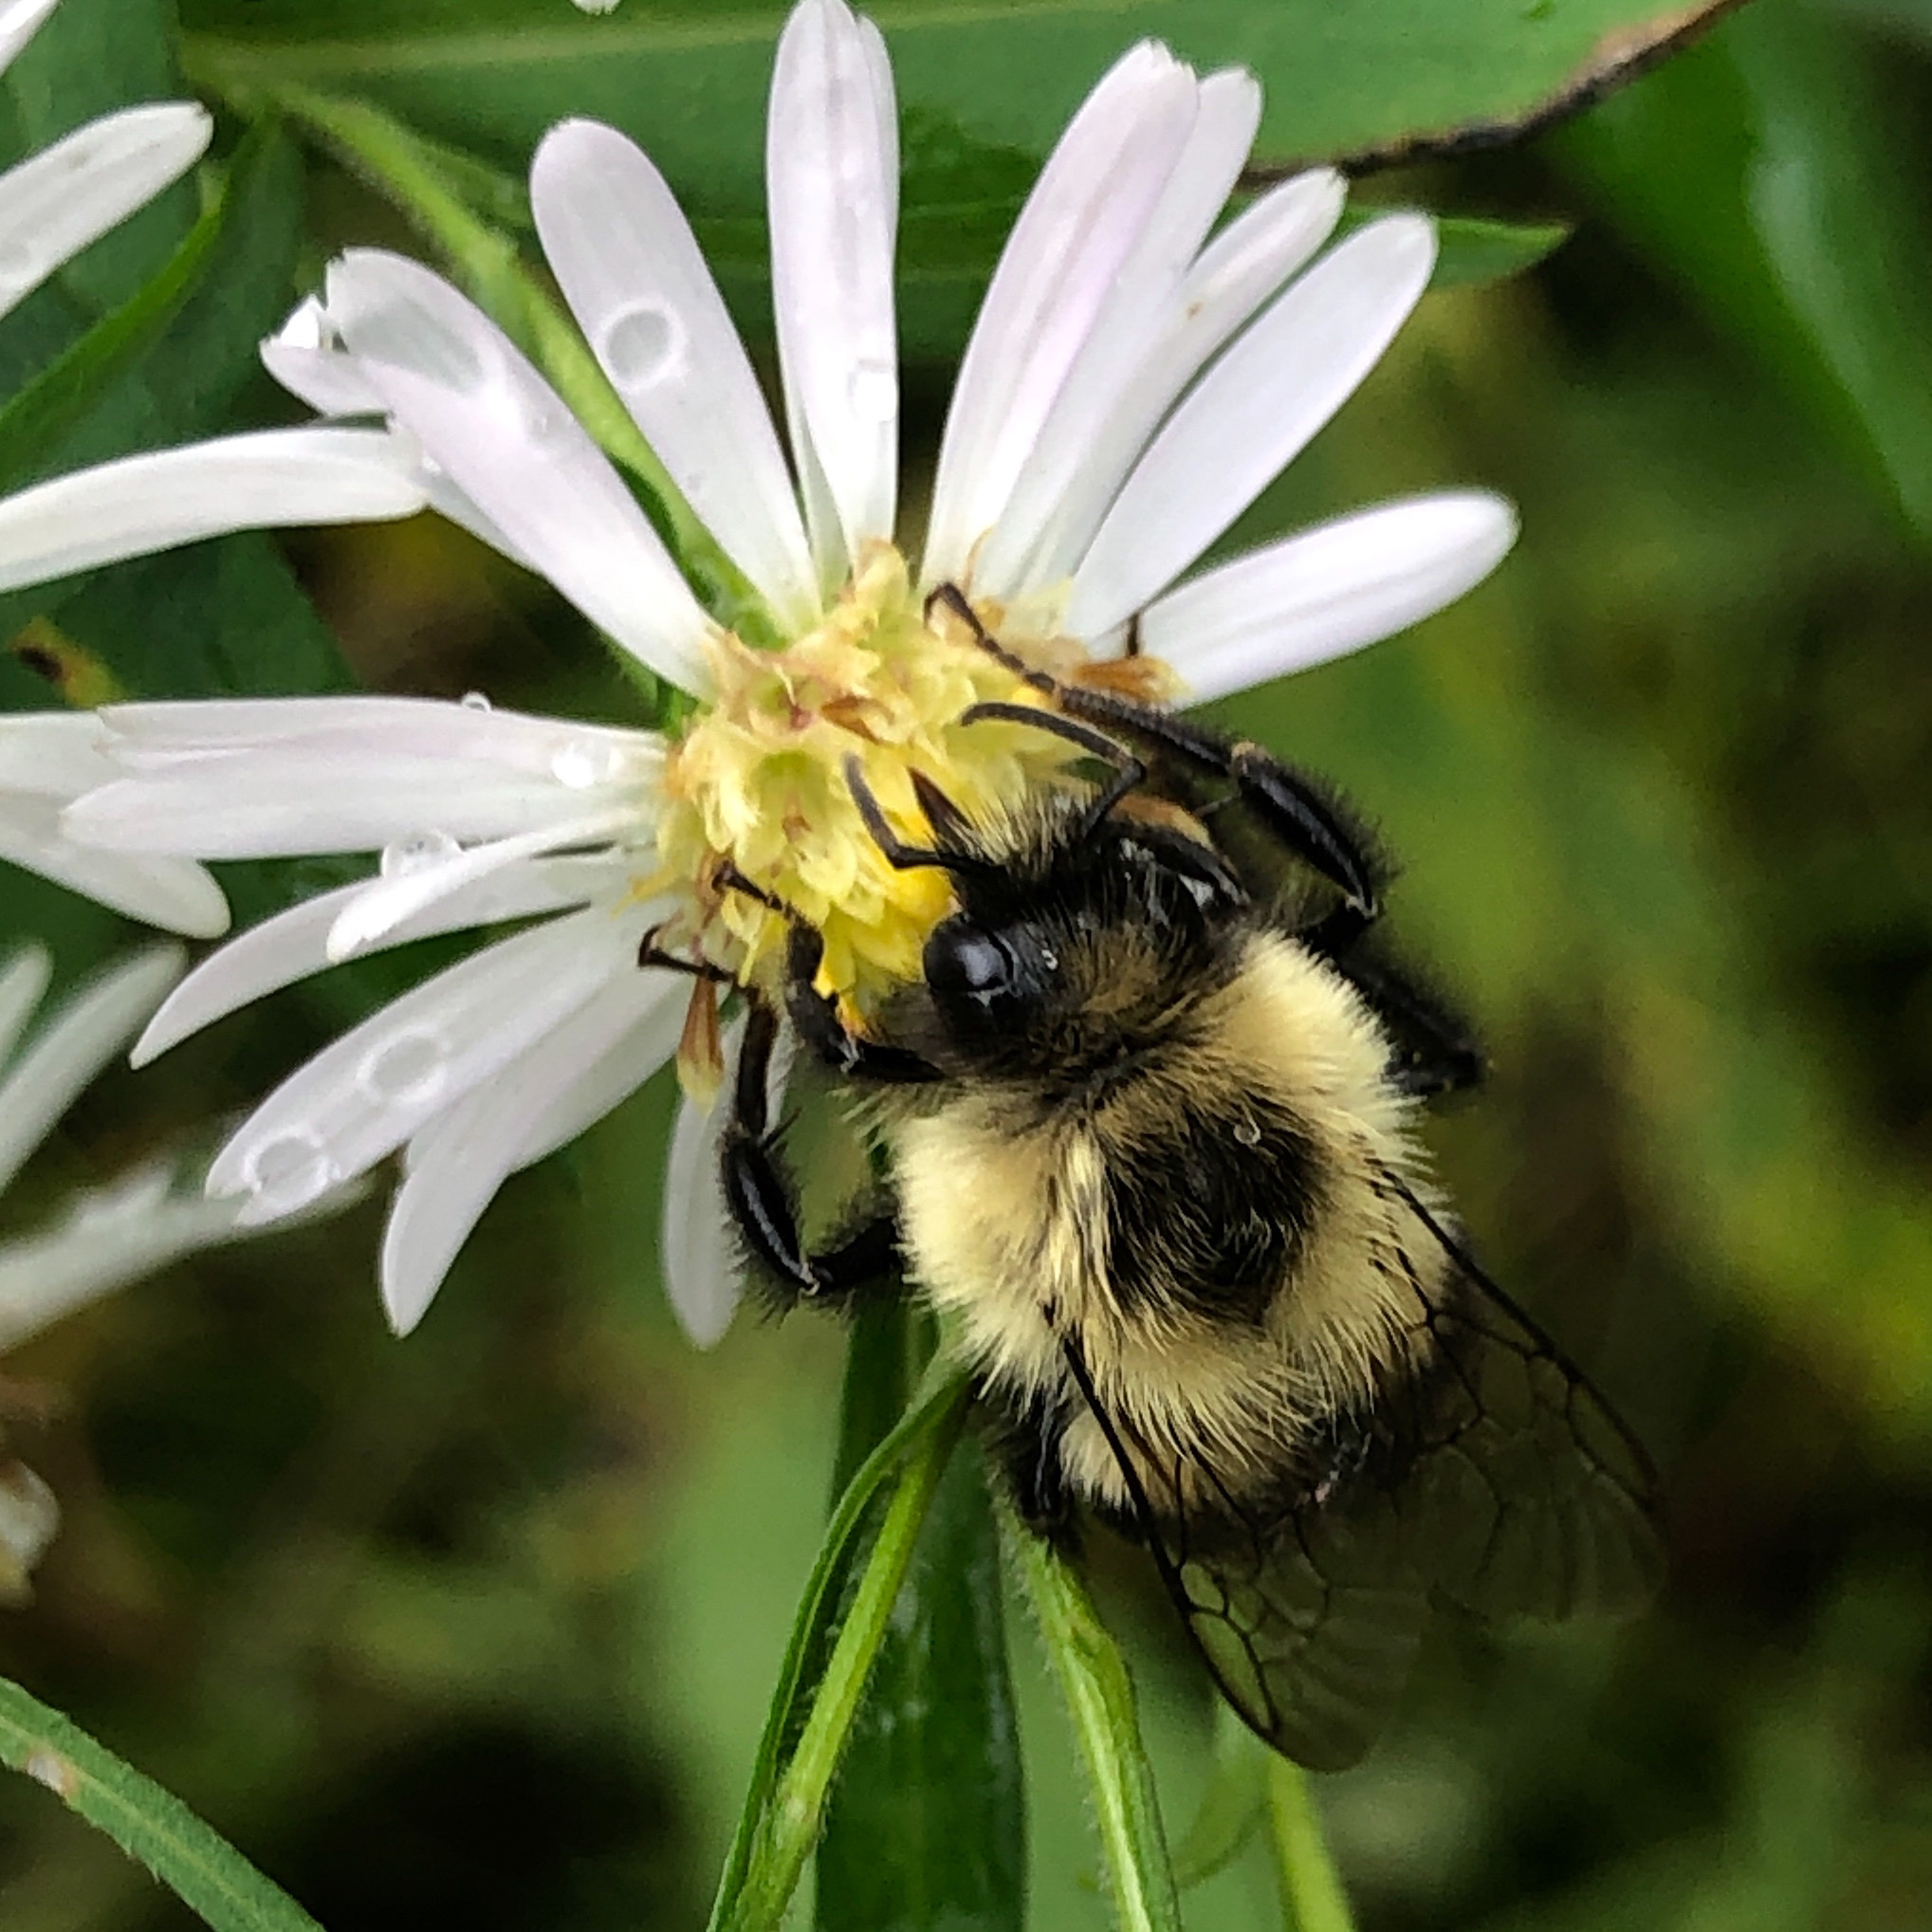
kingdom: Animalia
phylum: Arthropoda
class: Insecta
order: Hymenoptera
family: Apidae
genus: Bombus
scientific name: Bombus impatiens
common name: Common eastern bumble bee
